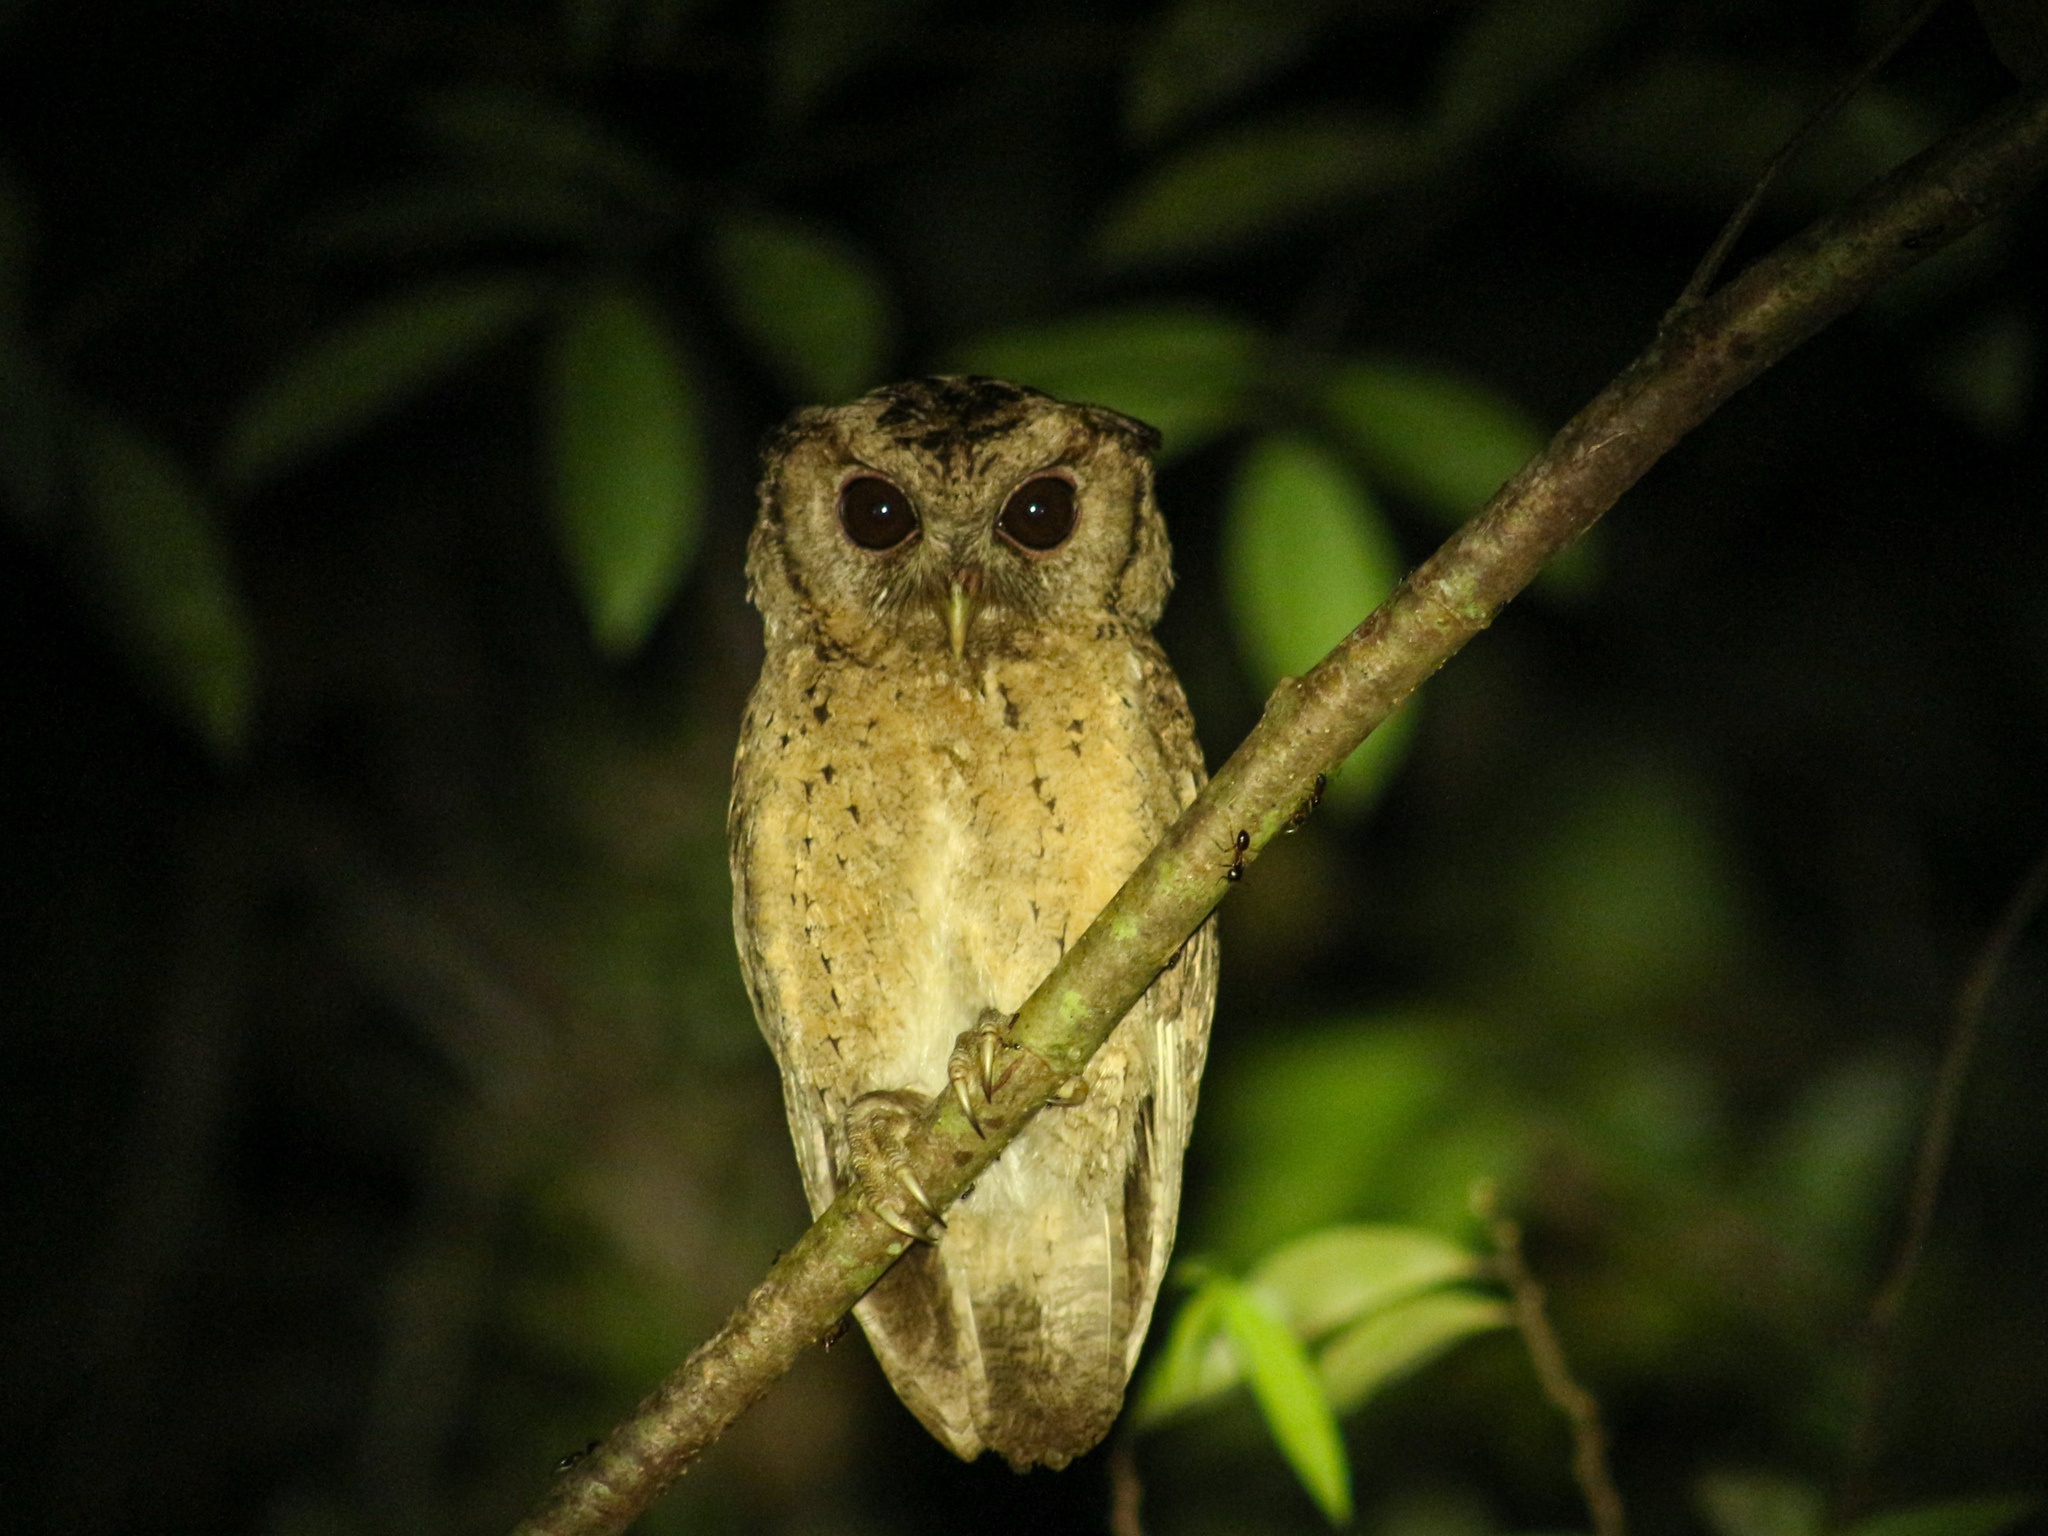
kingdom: Animalia
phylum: Chordata
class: Aves
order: Strigiformes
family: Strigidae
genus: Otus
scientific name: Otus lettia
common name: Collared scops owl
